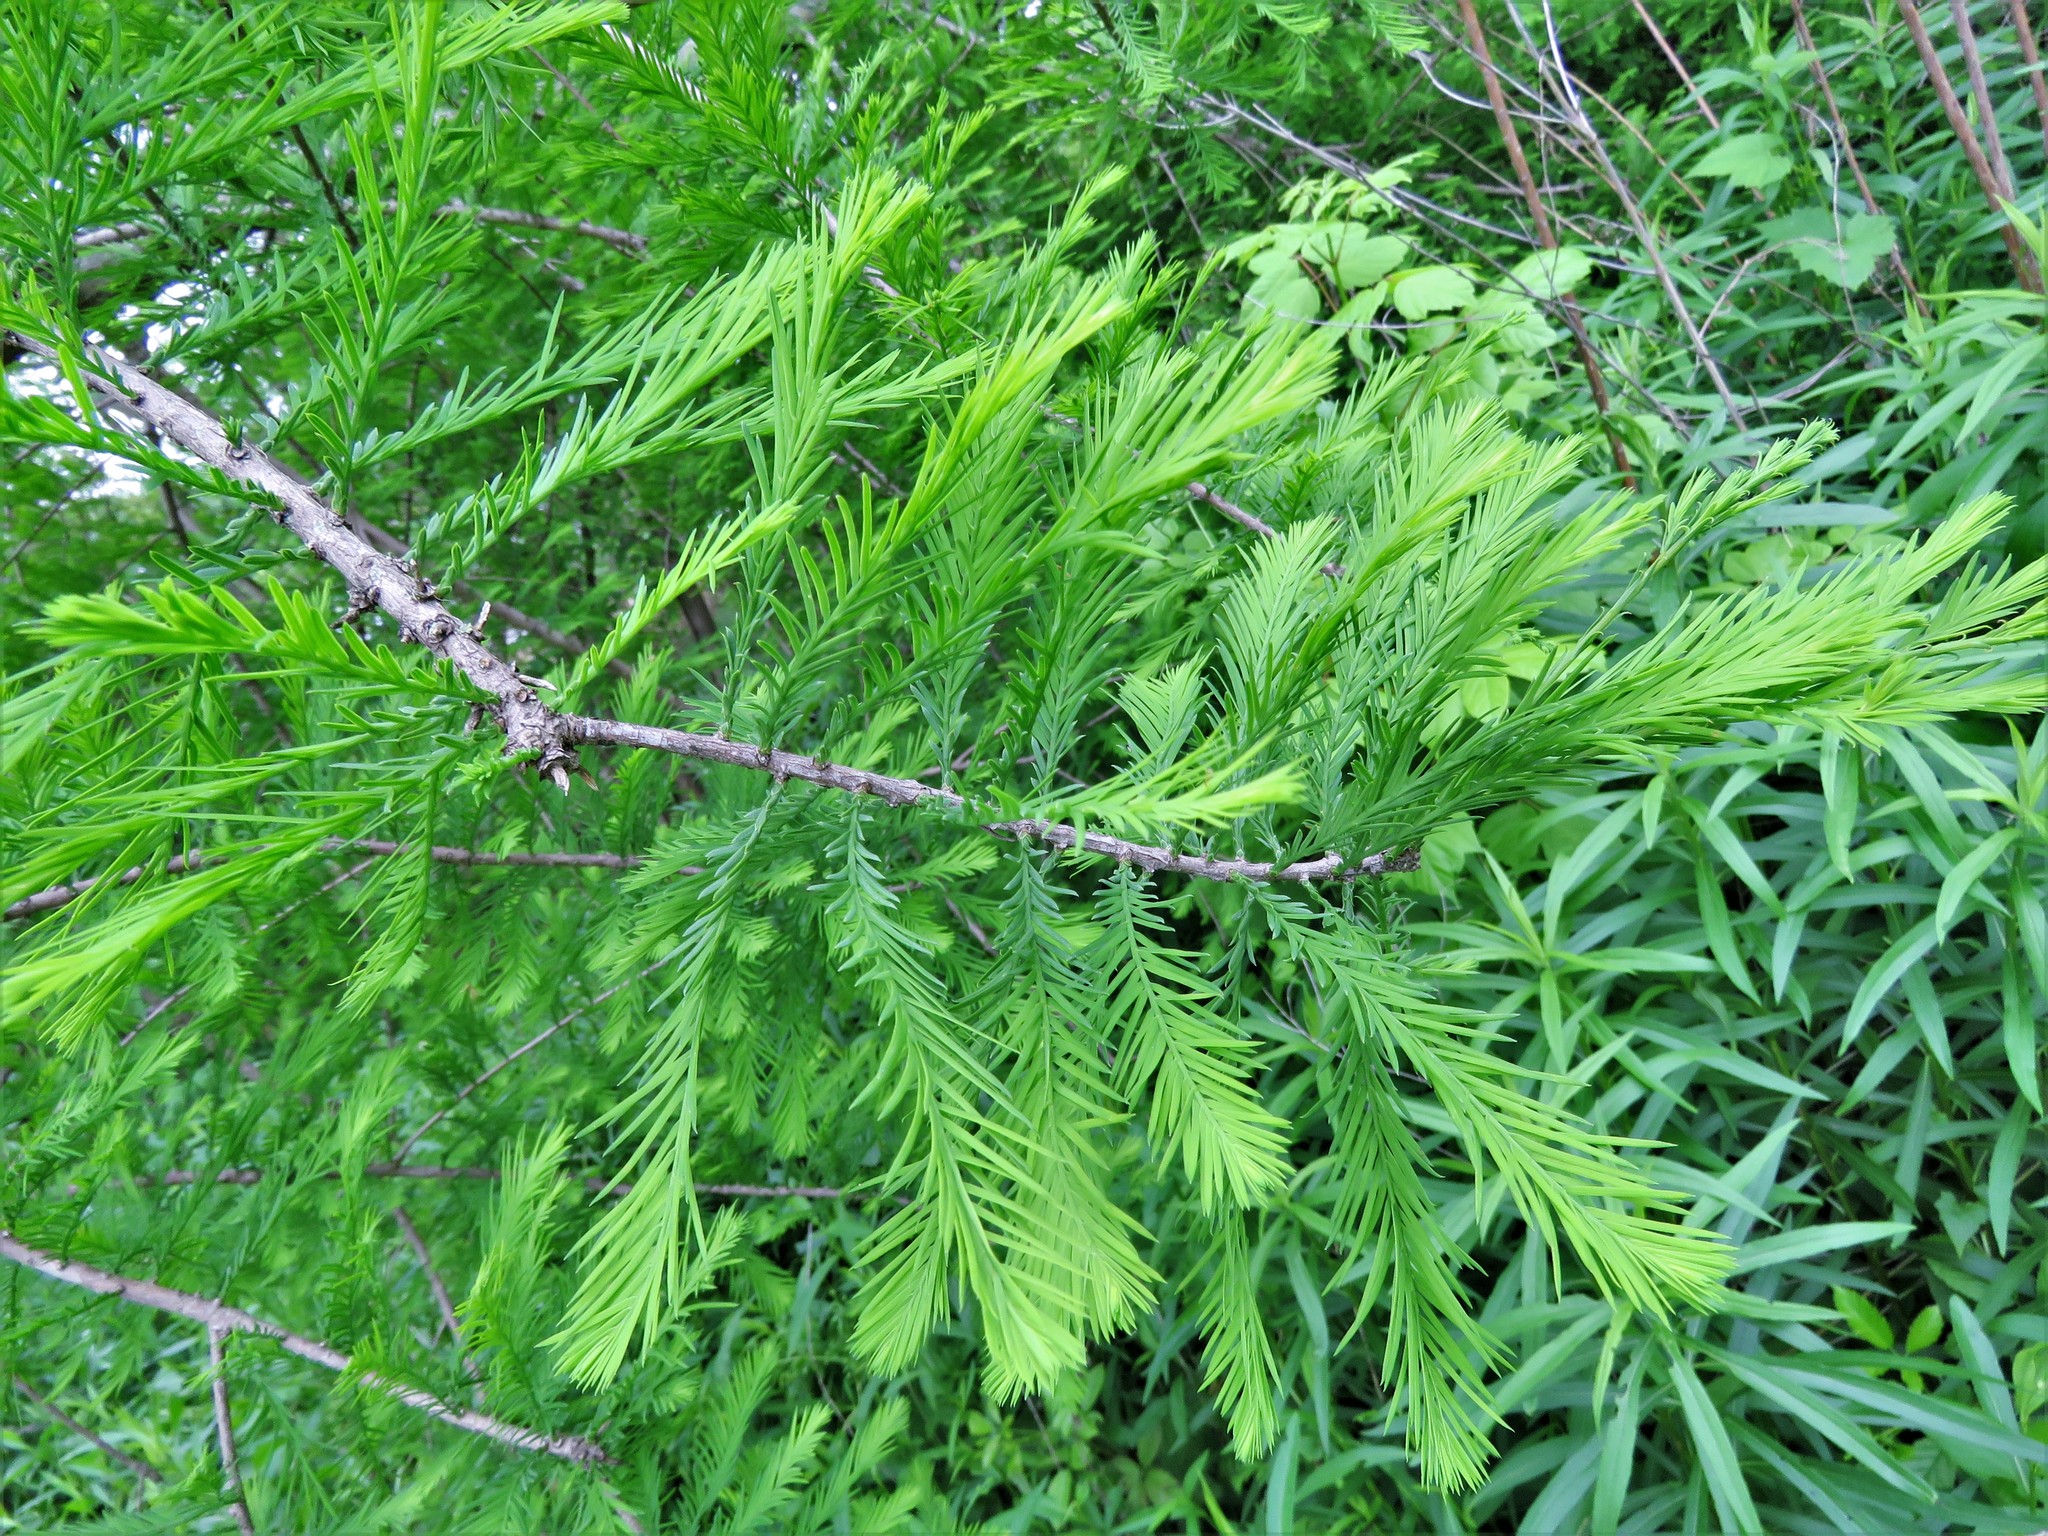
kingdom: Plantae
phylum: Tracheophyta
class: Pinopsida
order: Pinales
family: Cupressaceae
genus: Taxodium
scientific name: Taxodium distichum
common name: Bald cypress
